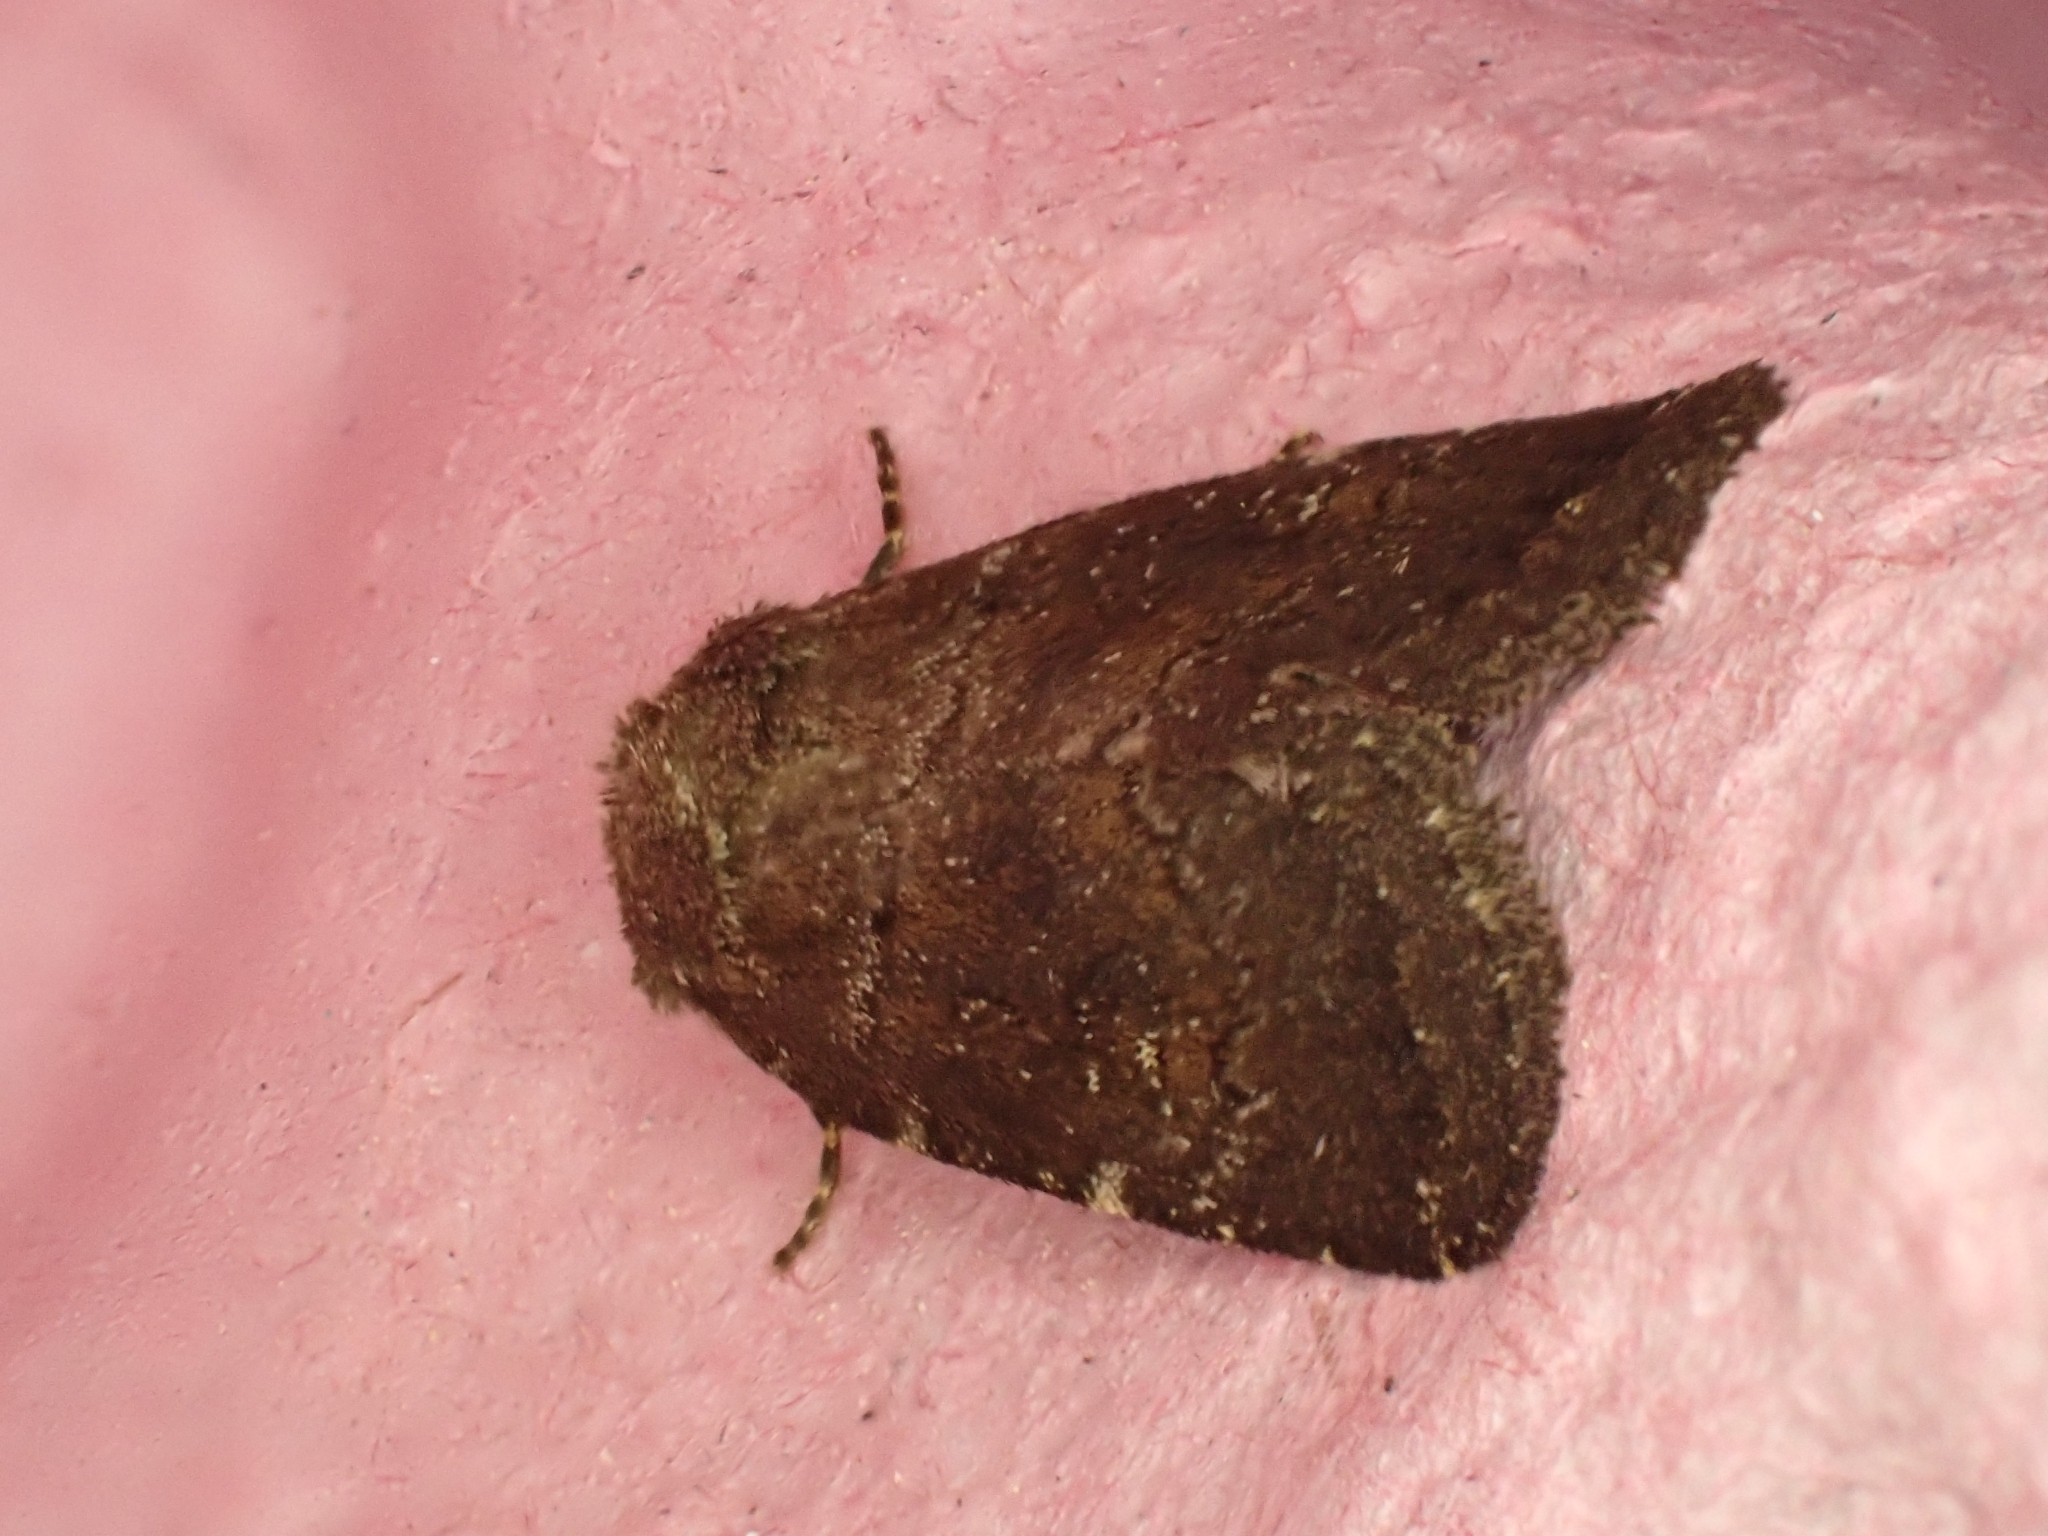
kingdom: Animalia
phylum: Arthropoda
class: Insecta
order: Lepidoptera
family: Noctuidae
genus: Charanyca
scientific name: Charanyca ferruginea
